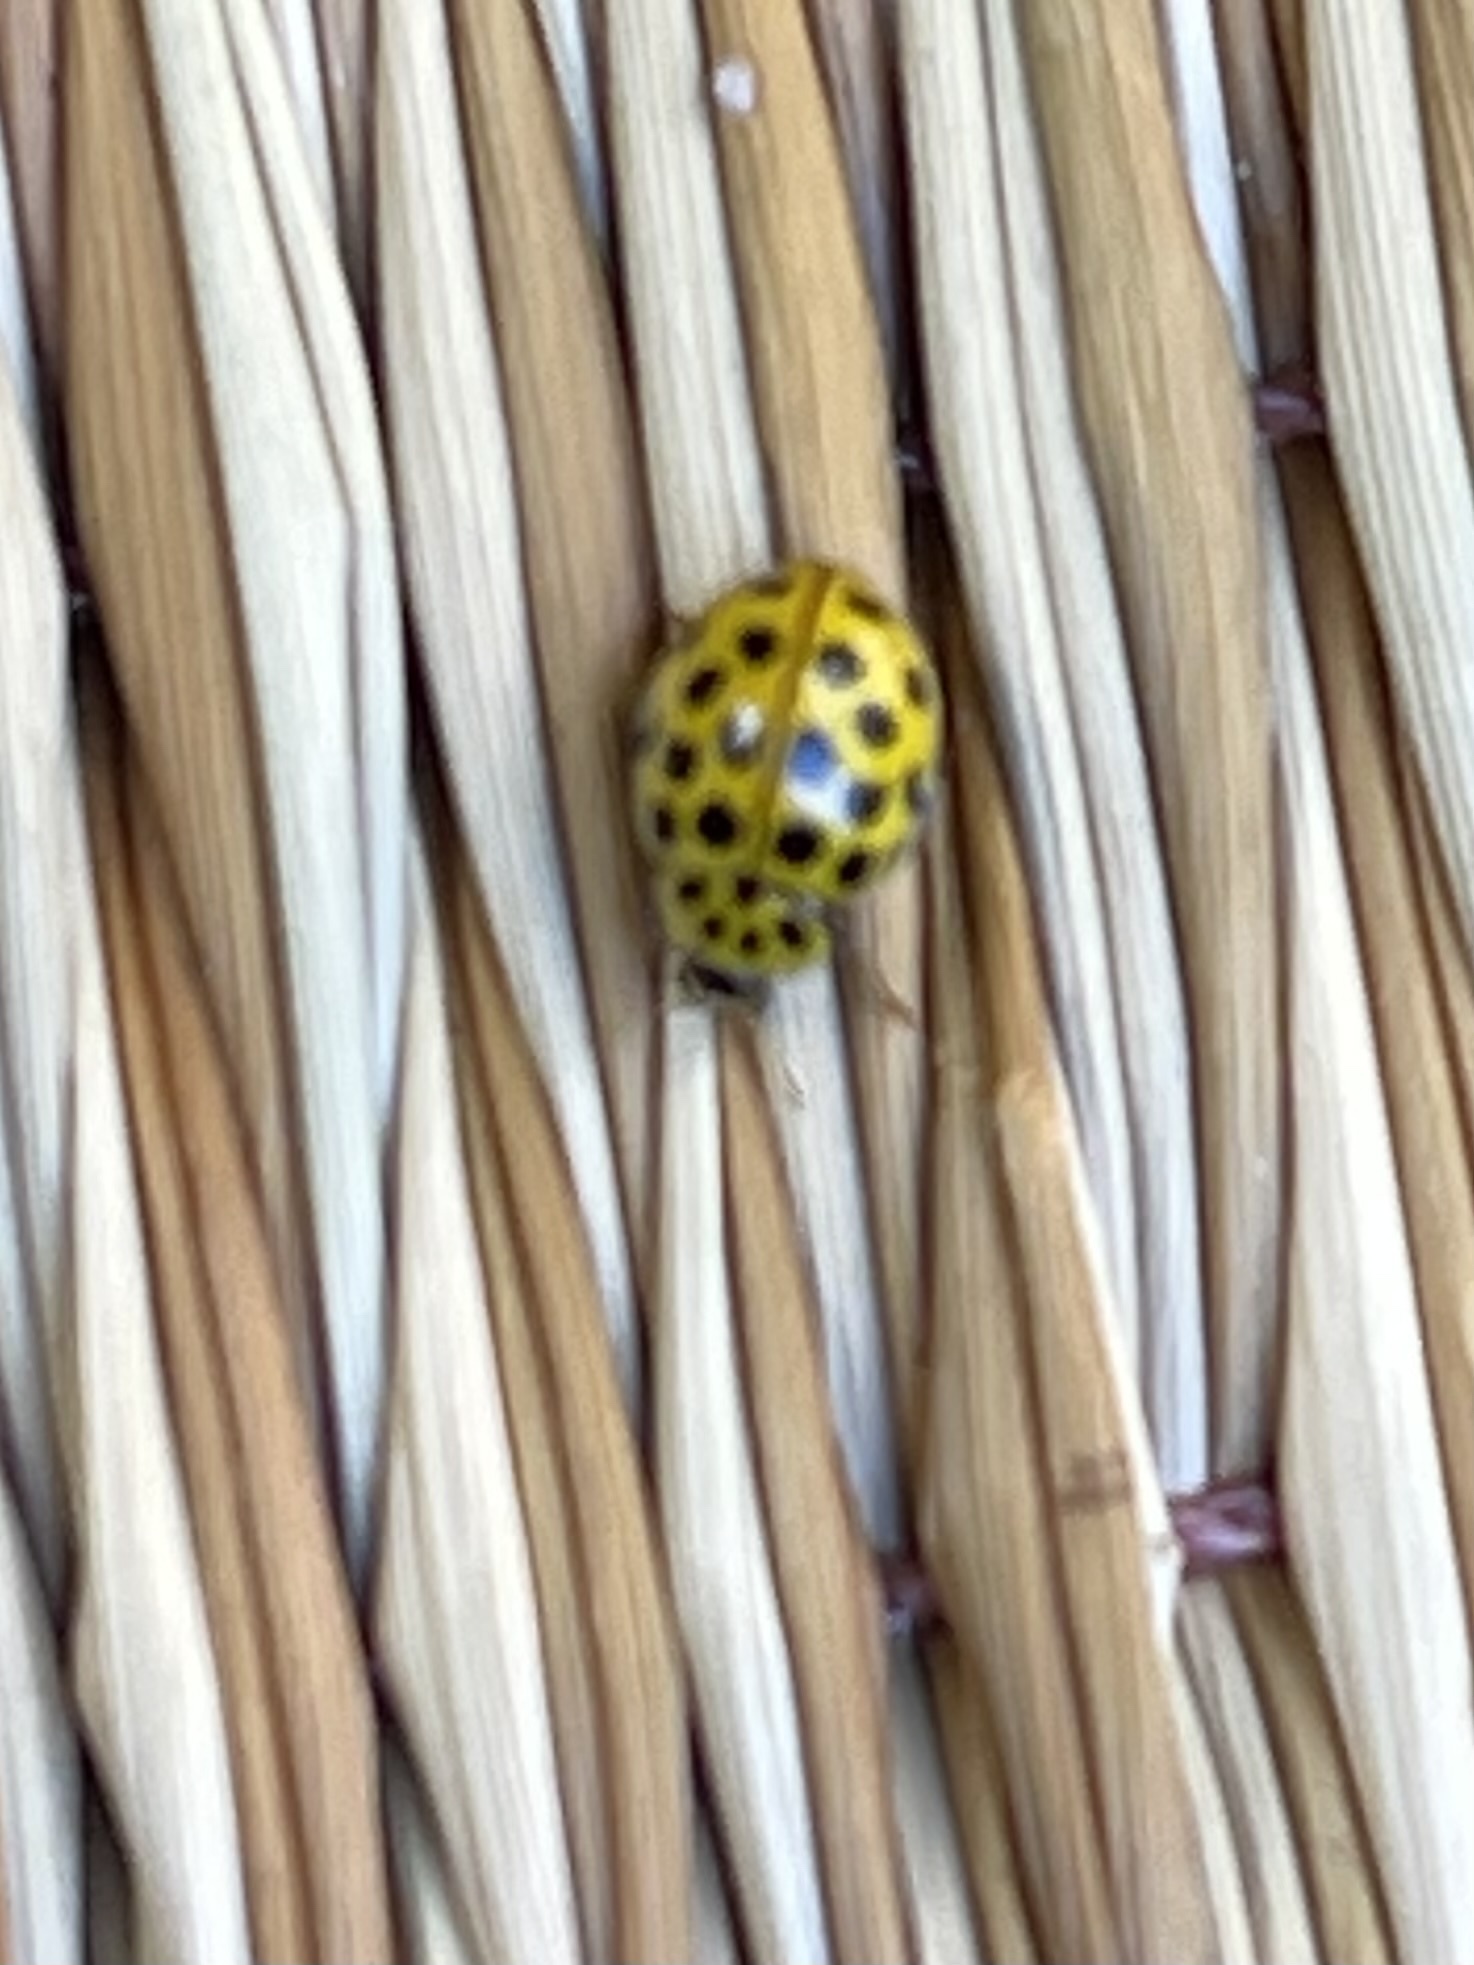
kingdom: Animalia
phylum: Arthropoda
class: Insecta
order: Coleoptera
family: Coccinellidae
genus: Psyllobora
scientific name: Psyllobora vigintiduopunctata
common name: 22-spot ladybird
